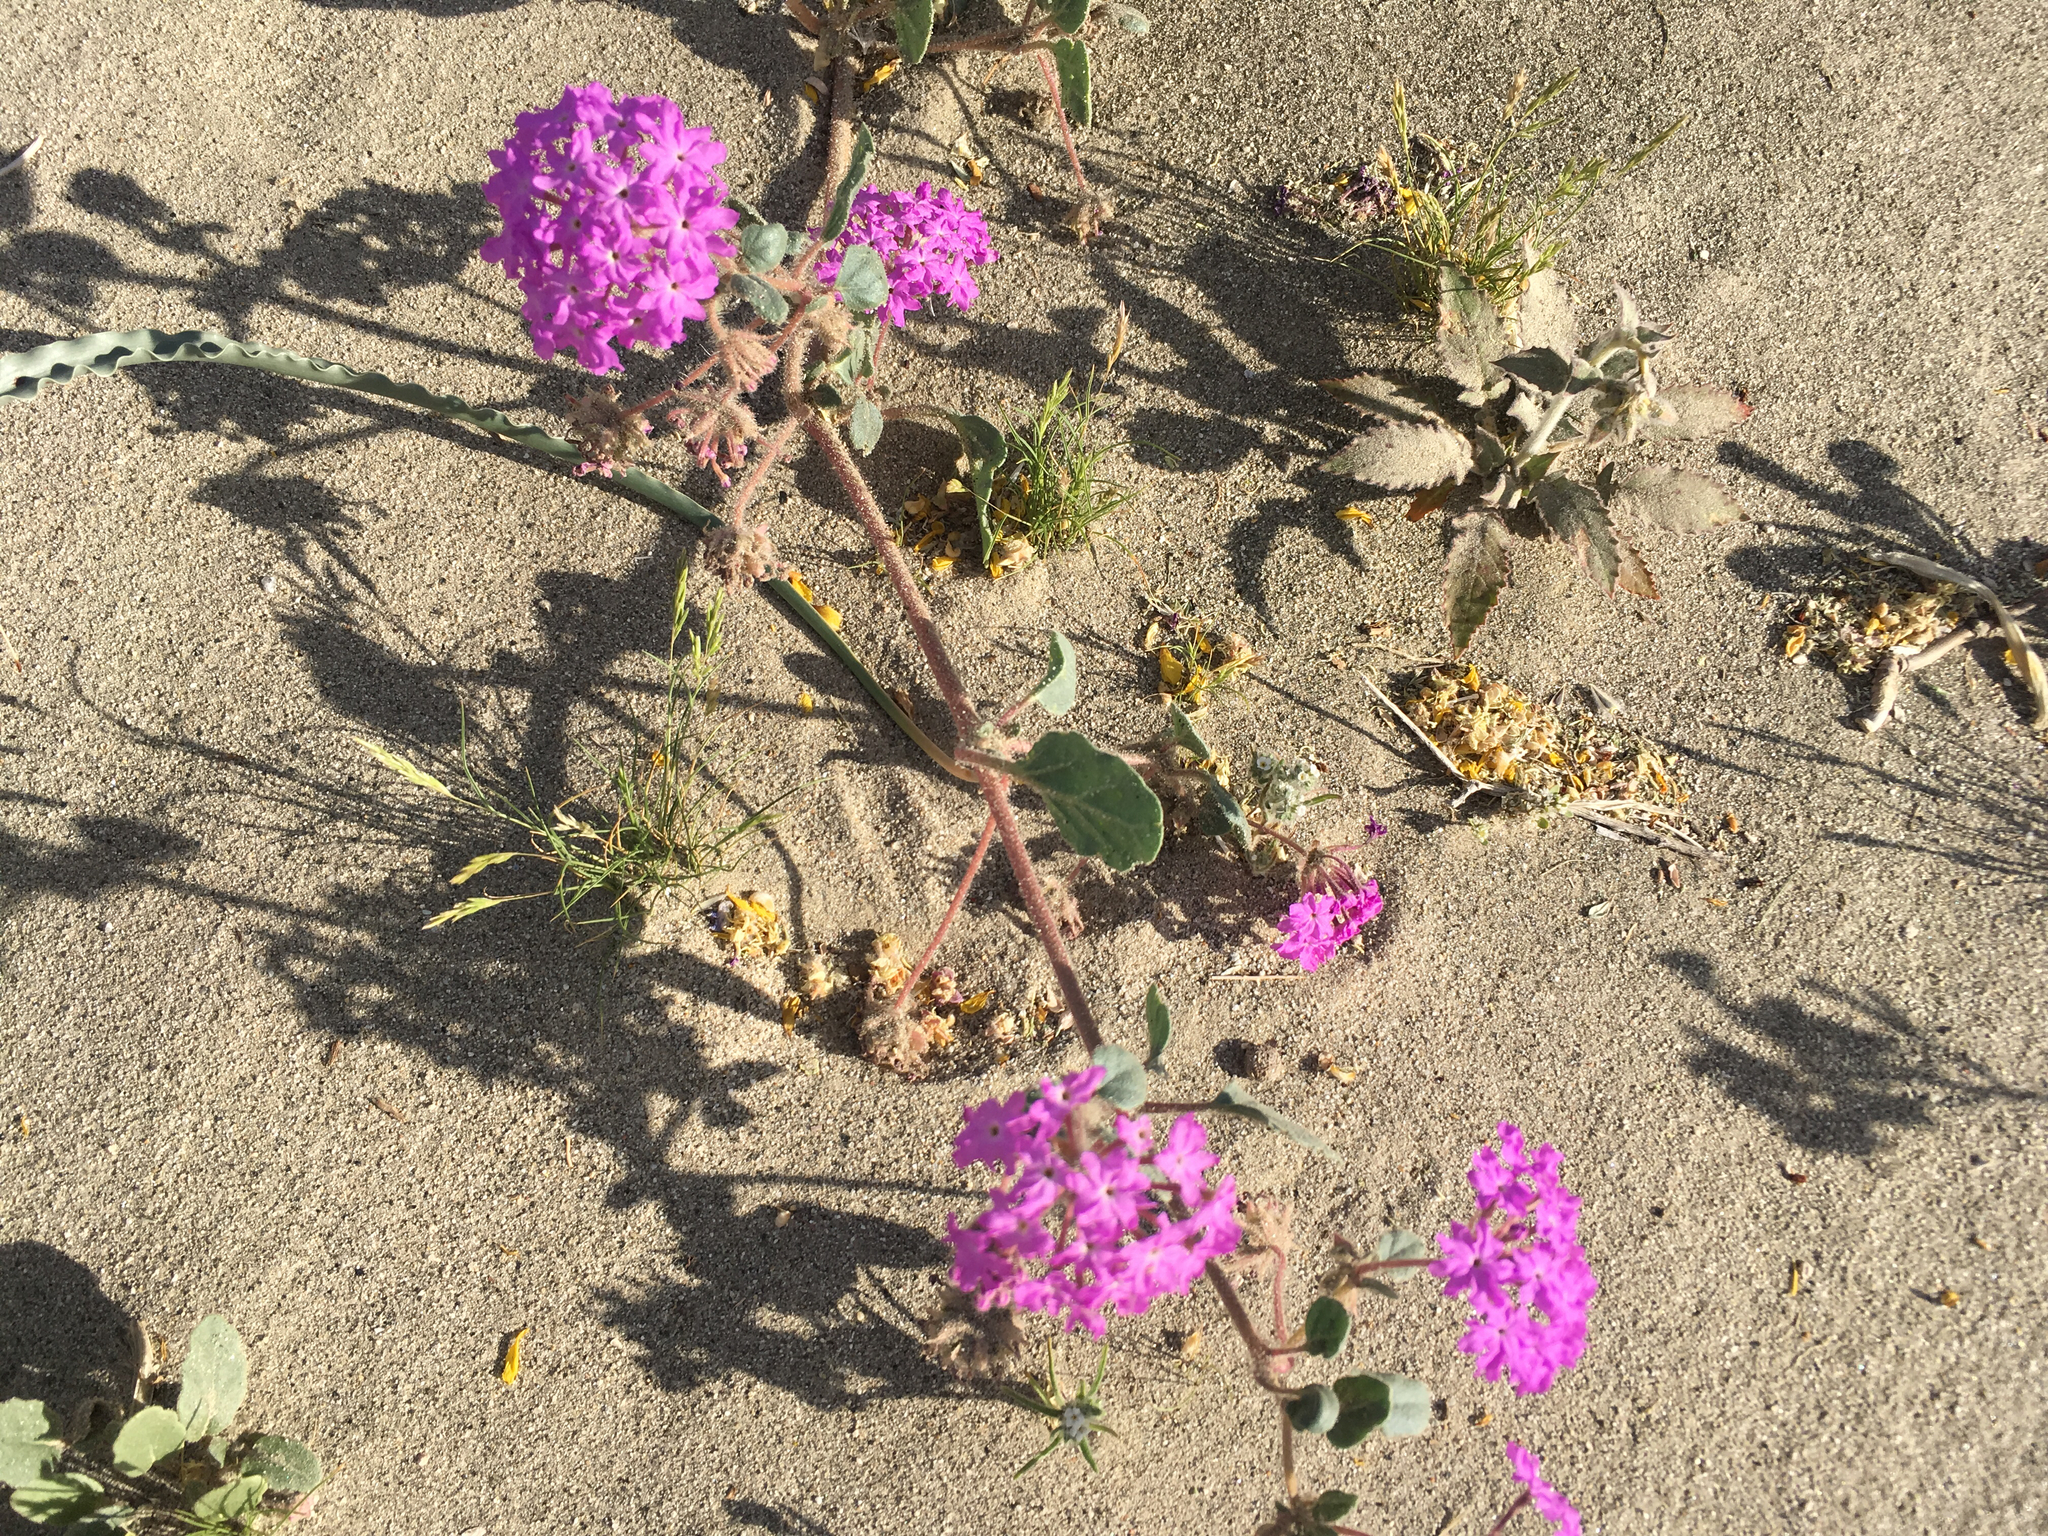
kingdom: Plantae
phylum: Tracheophyta
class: Magnoliopsida
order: Caryophyllales
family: Nyctaginaceae
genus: Abronia
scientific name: Abronia villosa
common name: Desert sand-verbena
